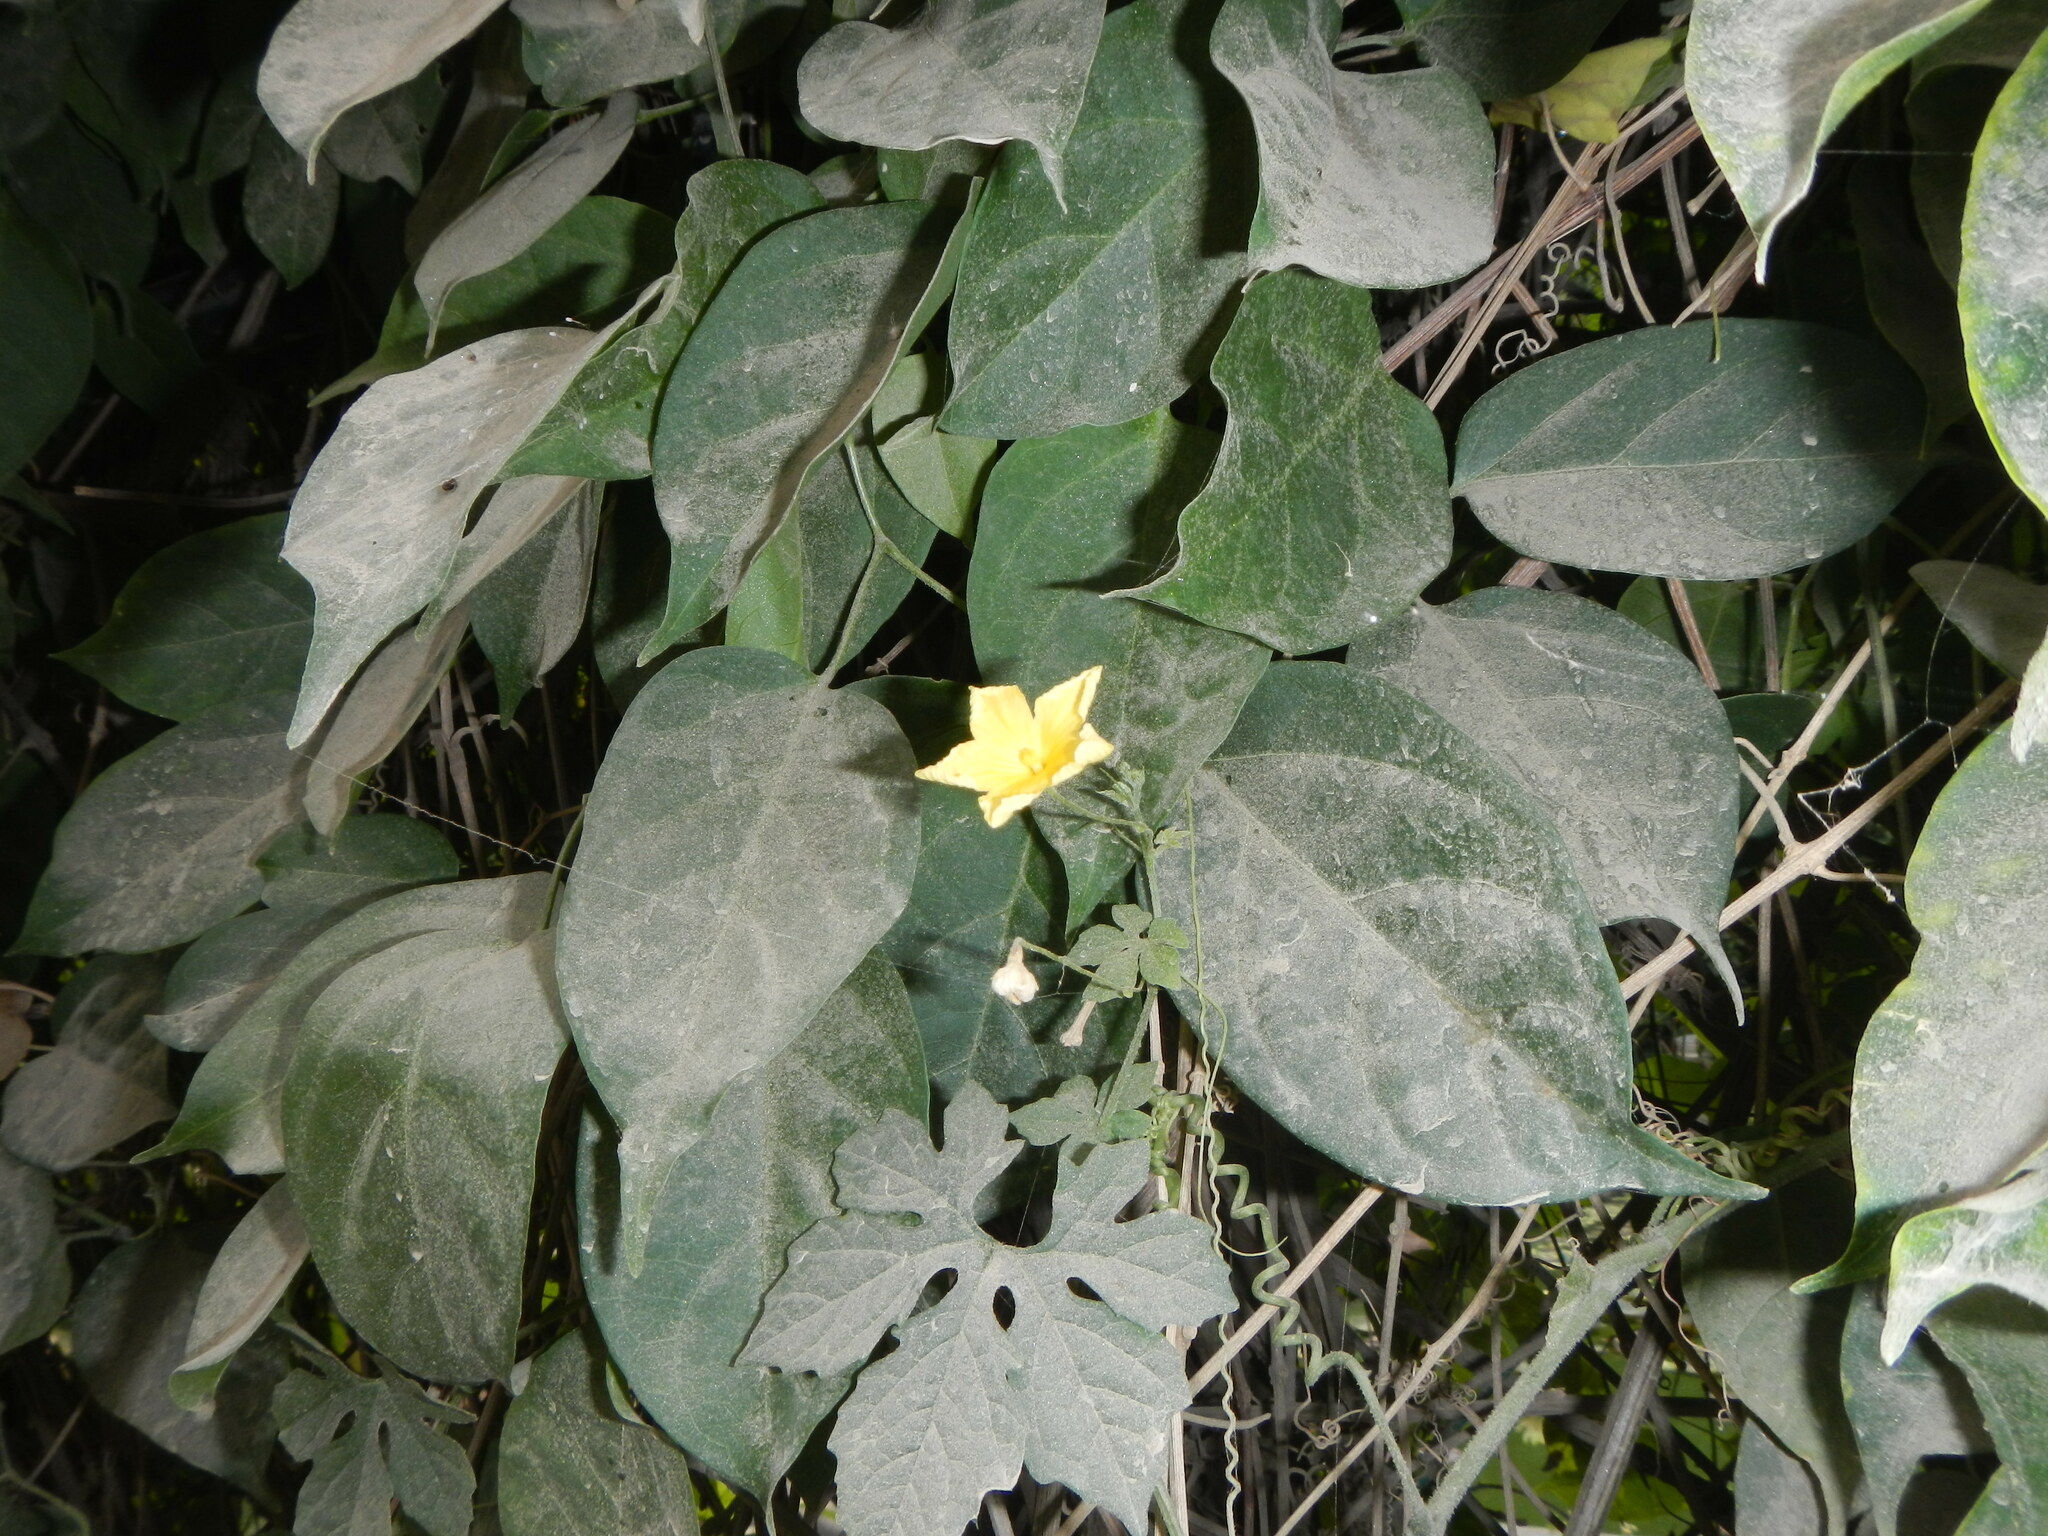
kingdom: Plantae
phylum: Tracheophyta
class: Magnoliopsida
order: Cucurbitales
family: Cucurbitaceae
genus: Momordica
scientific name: Momordica charantia
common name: Balsampear
